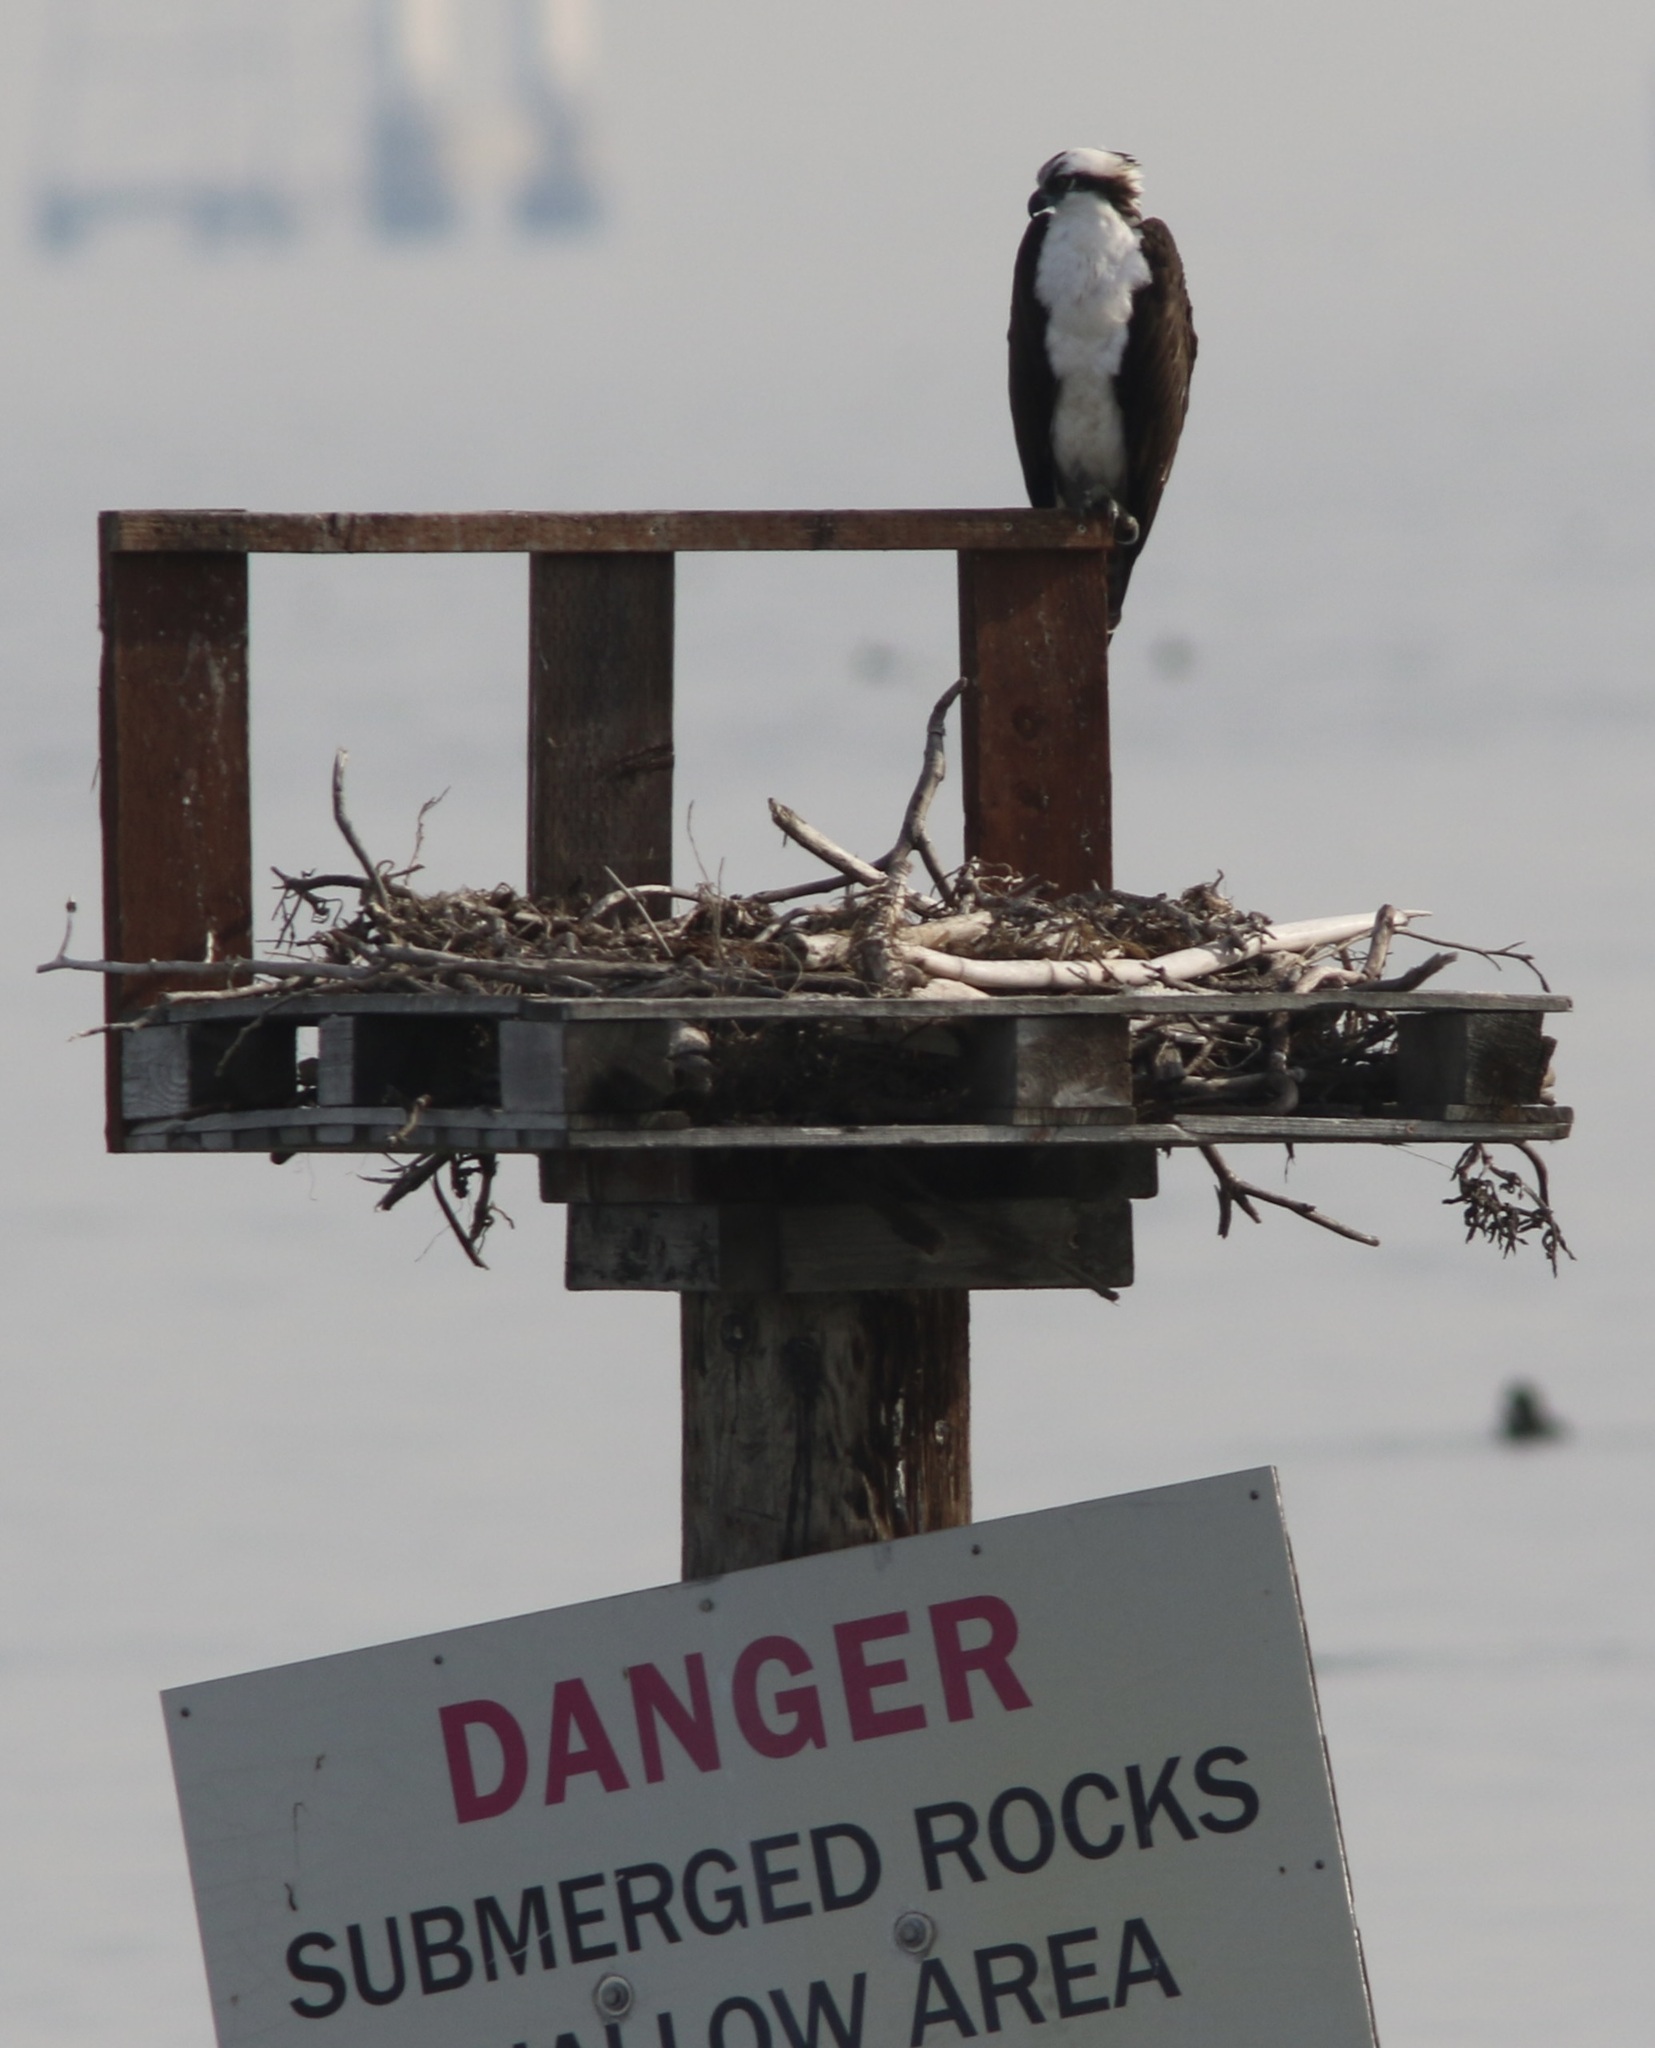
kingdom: Animalia
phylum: Chordata
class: Aves
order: Accipitriformes
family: Pandionidae
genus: Pandion
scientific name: Pandion haliaetus
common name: Osprey
